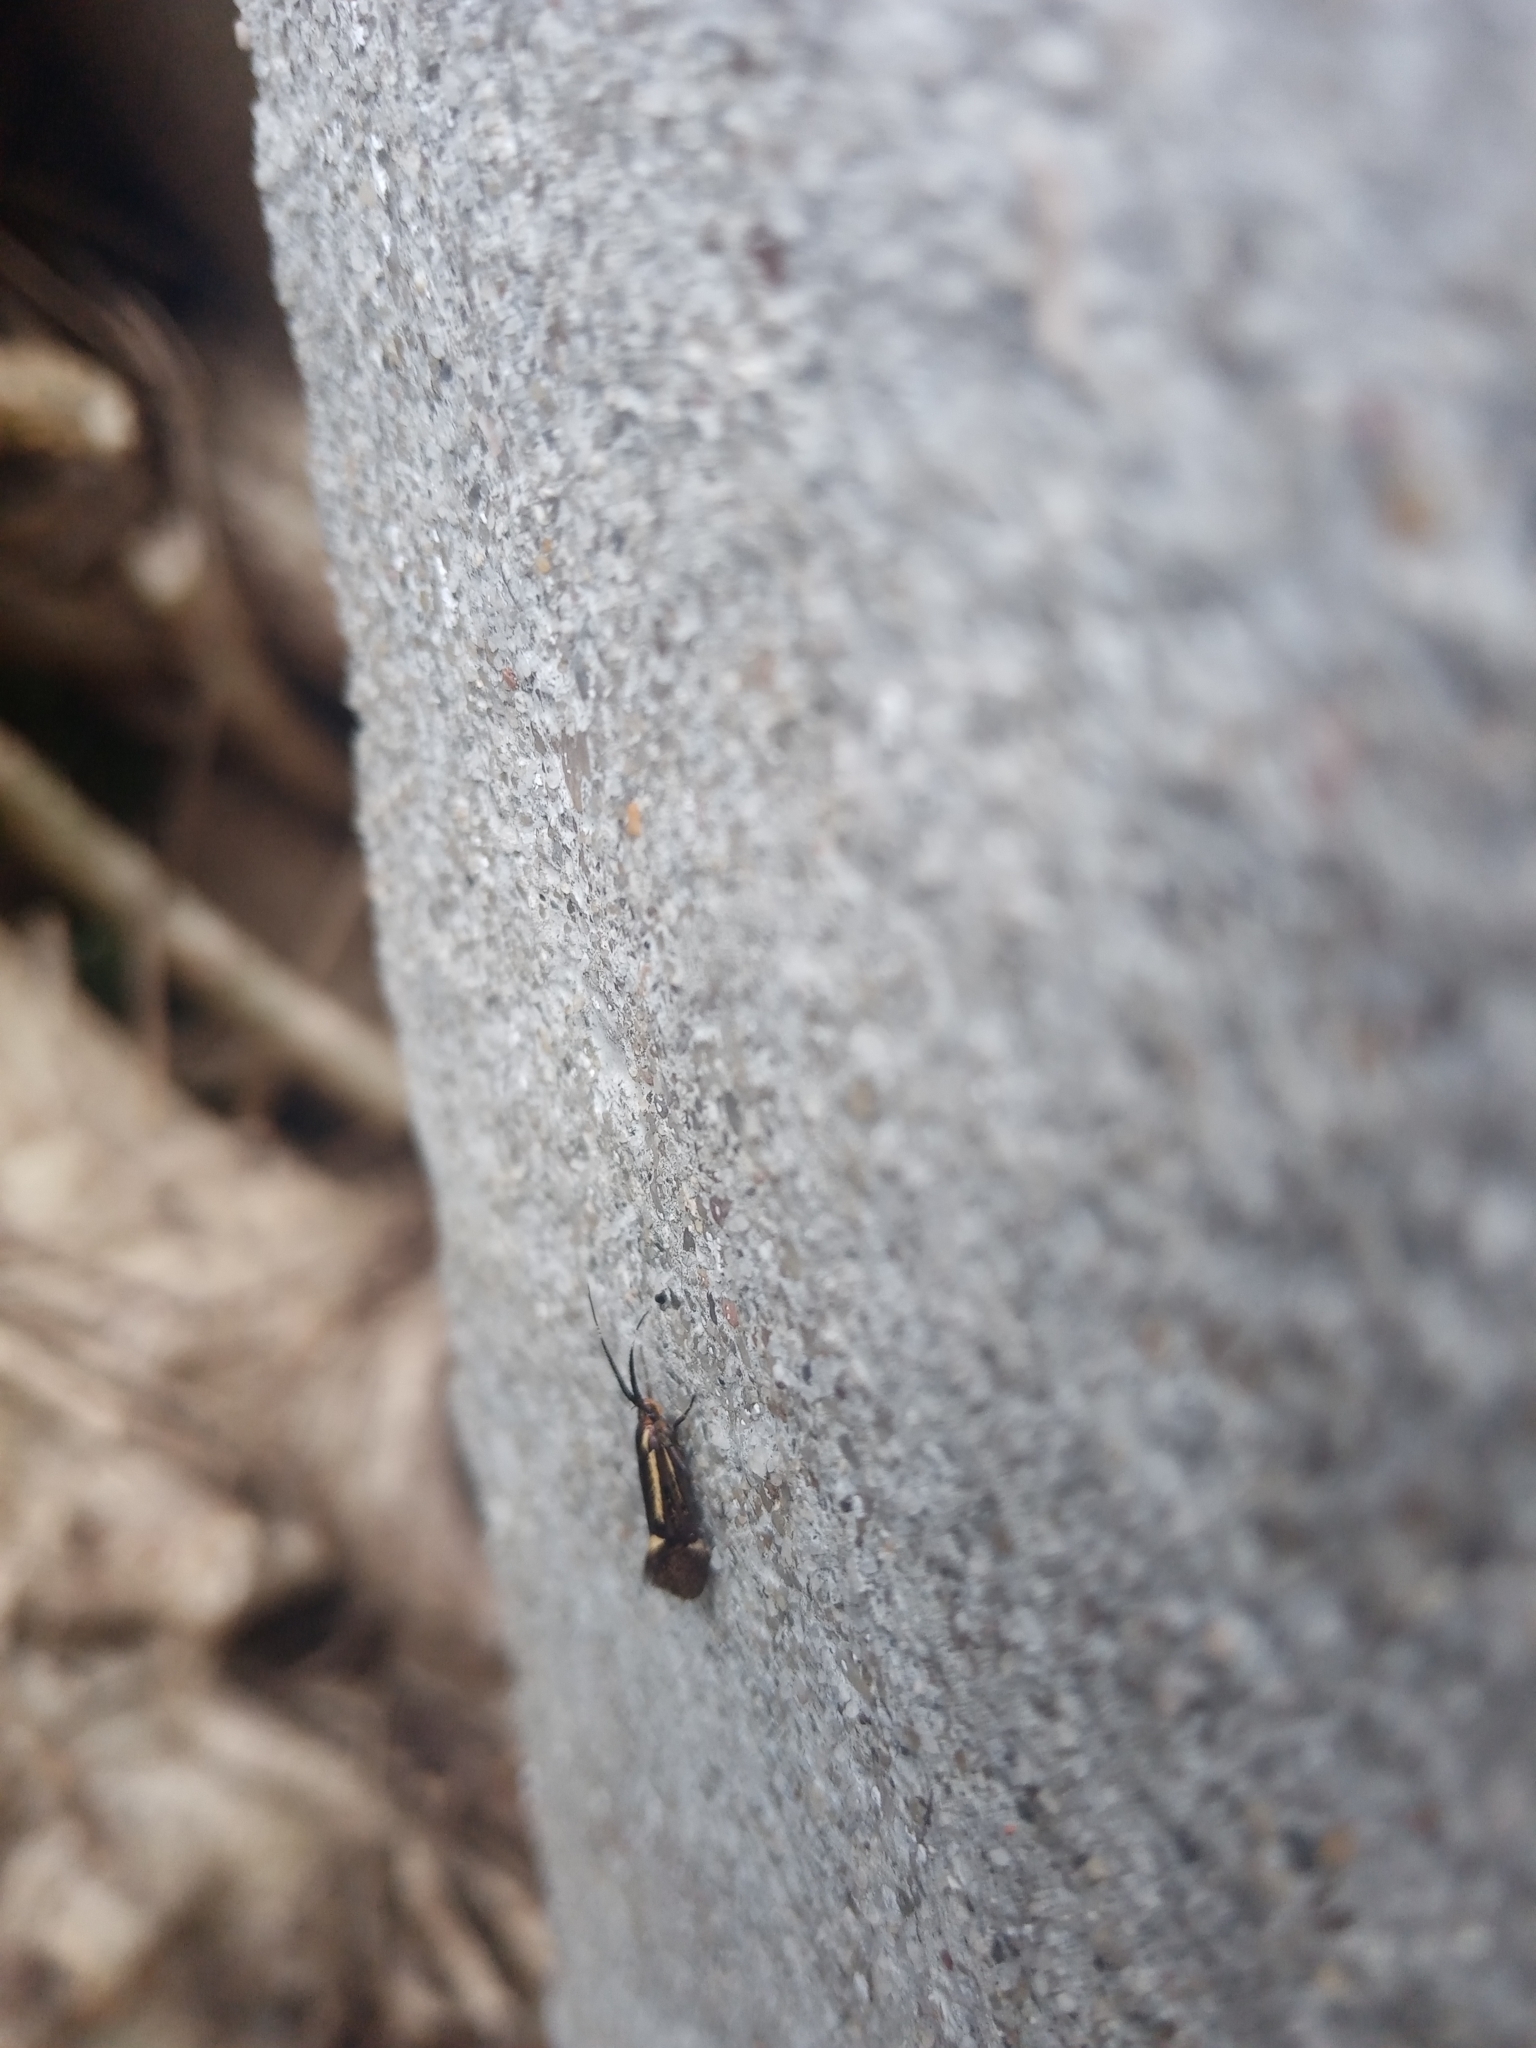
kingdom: Animalia
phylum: Arthropoda
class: Insecta
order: Lepidoptera
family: Oecophoridae
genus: Dafa
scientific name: Dafa Esperia sulphurella
